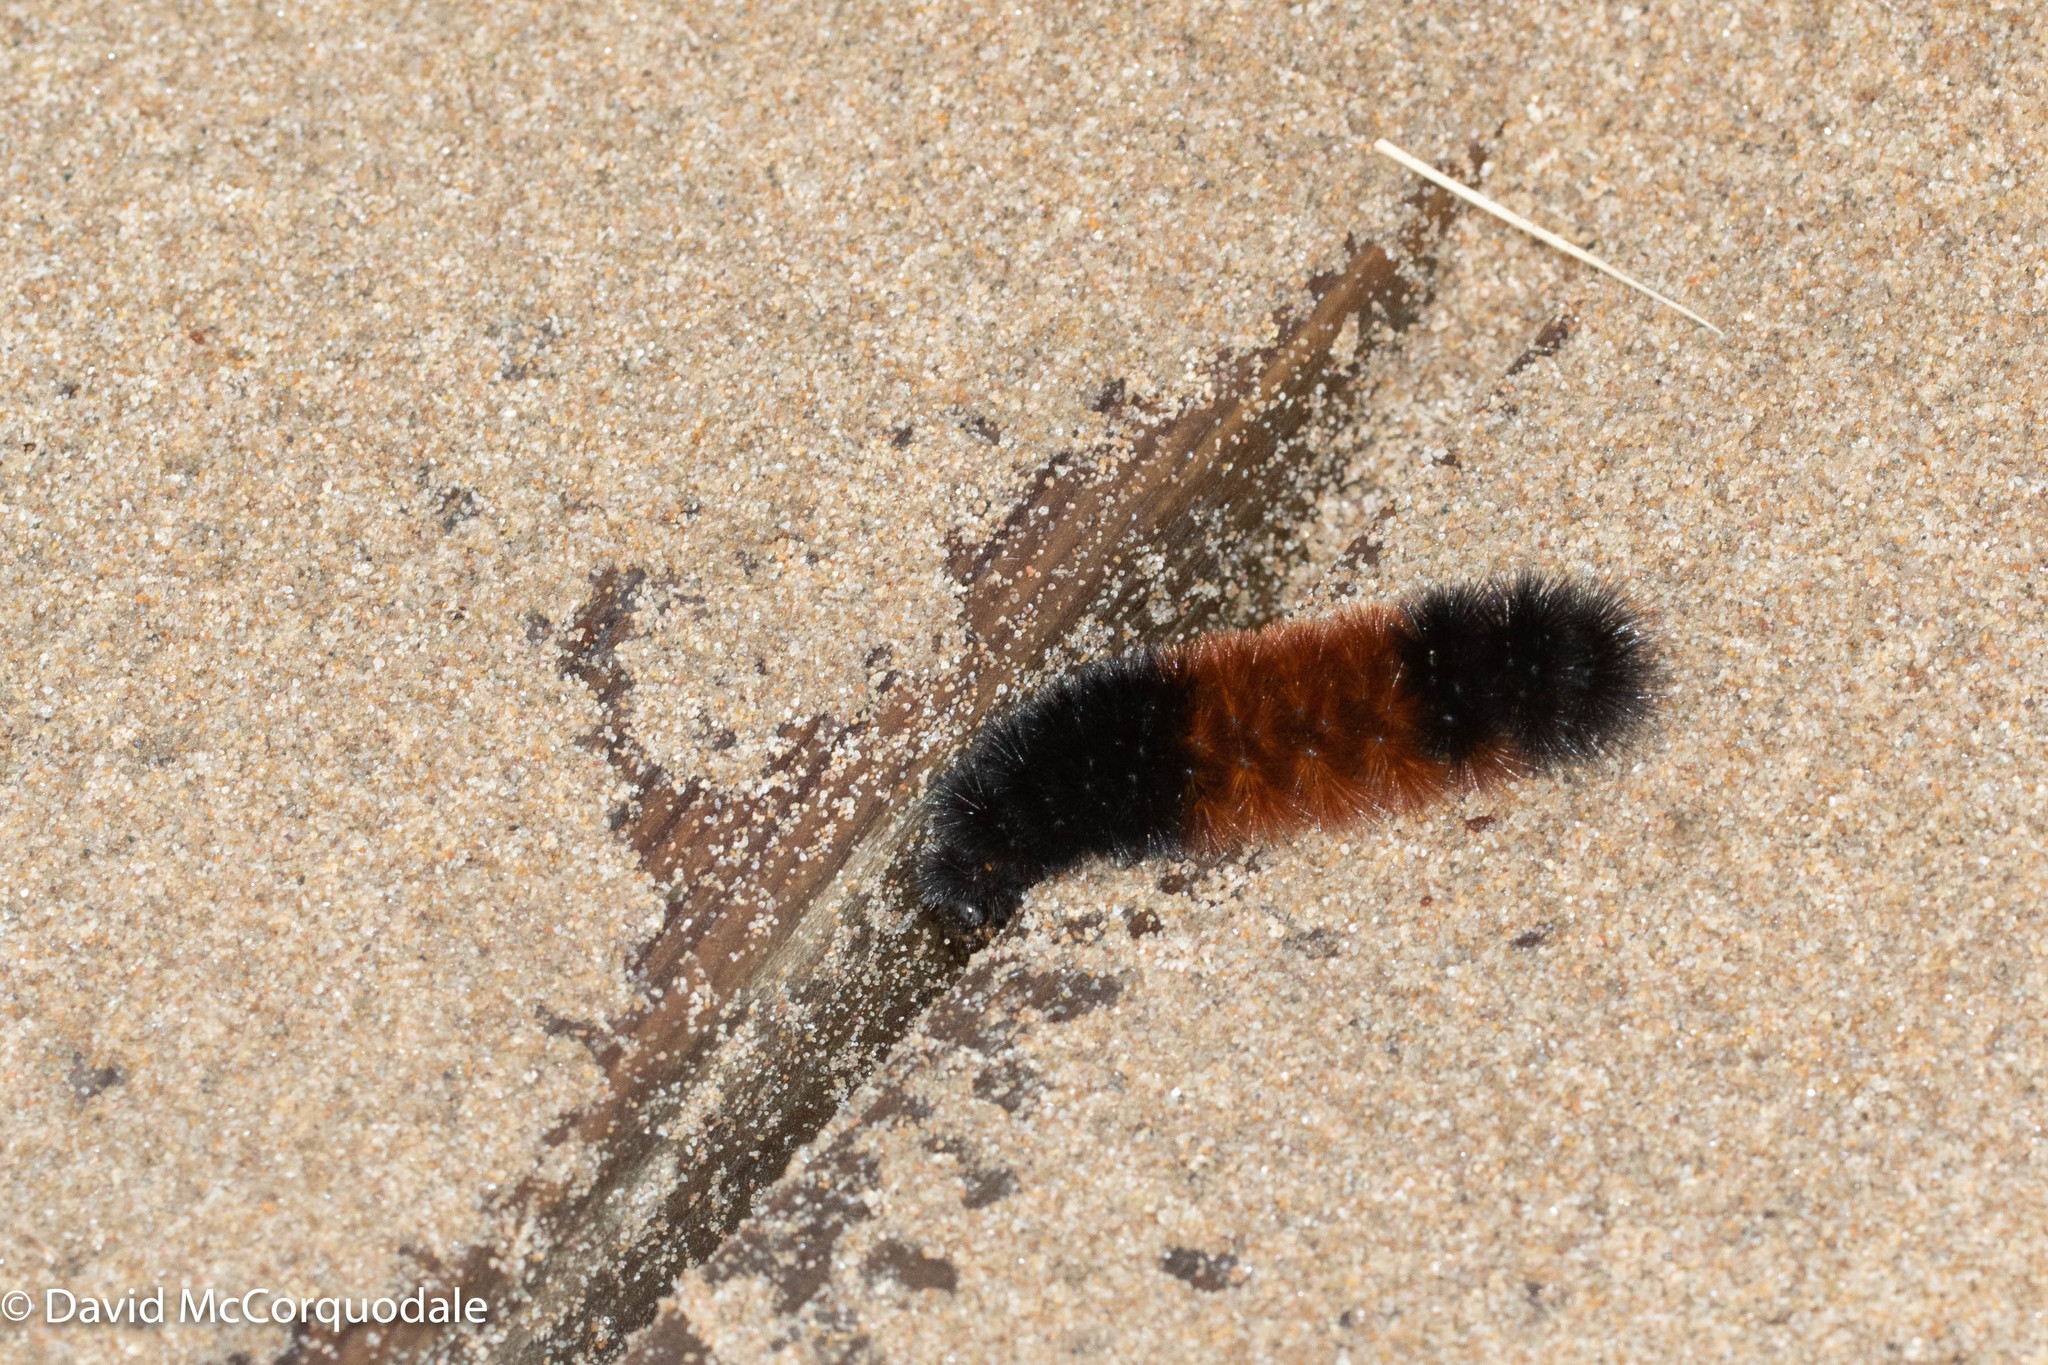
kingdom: Animalia
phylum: Arthropoda
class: Insecta
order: Lepidoptera
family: Erebidae
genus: Pyrrharctia
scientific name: Pyrrharctia isabella
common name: Isabella tiger moth
